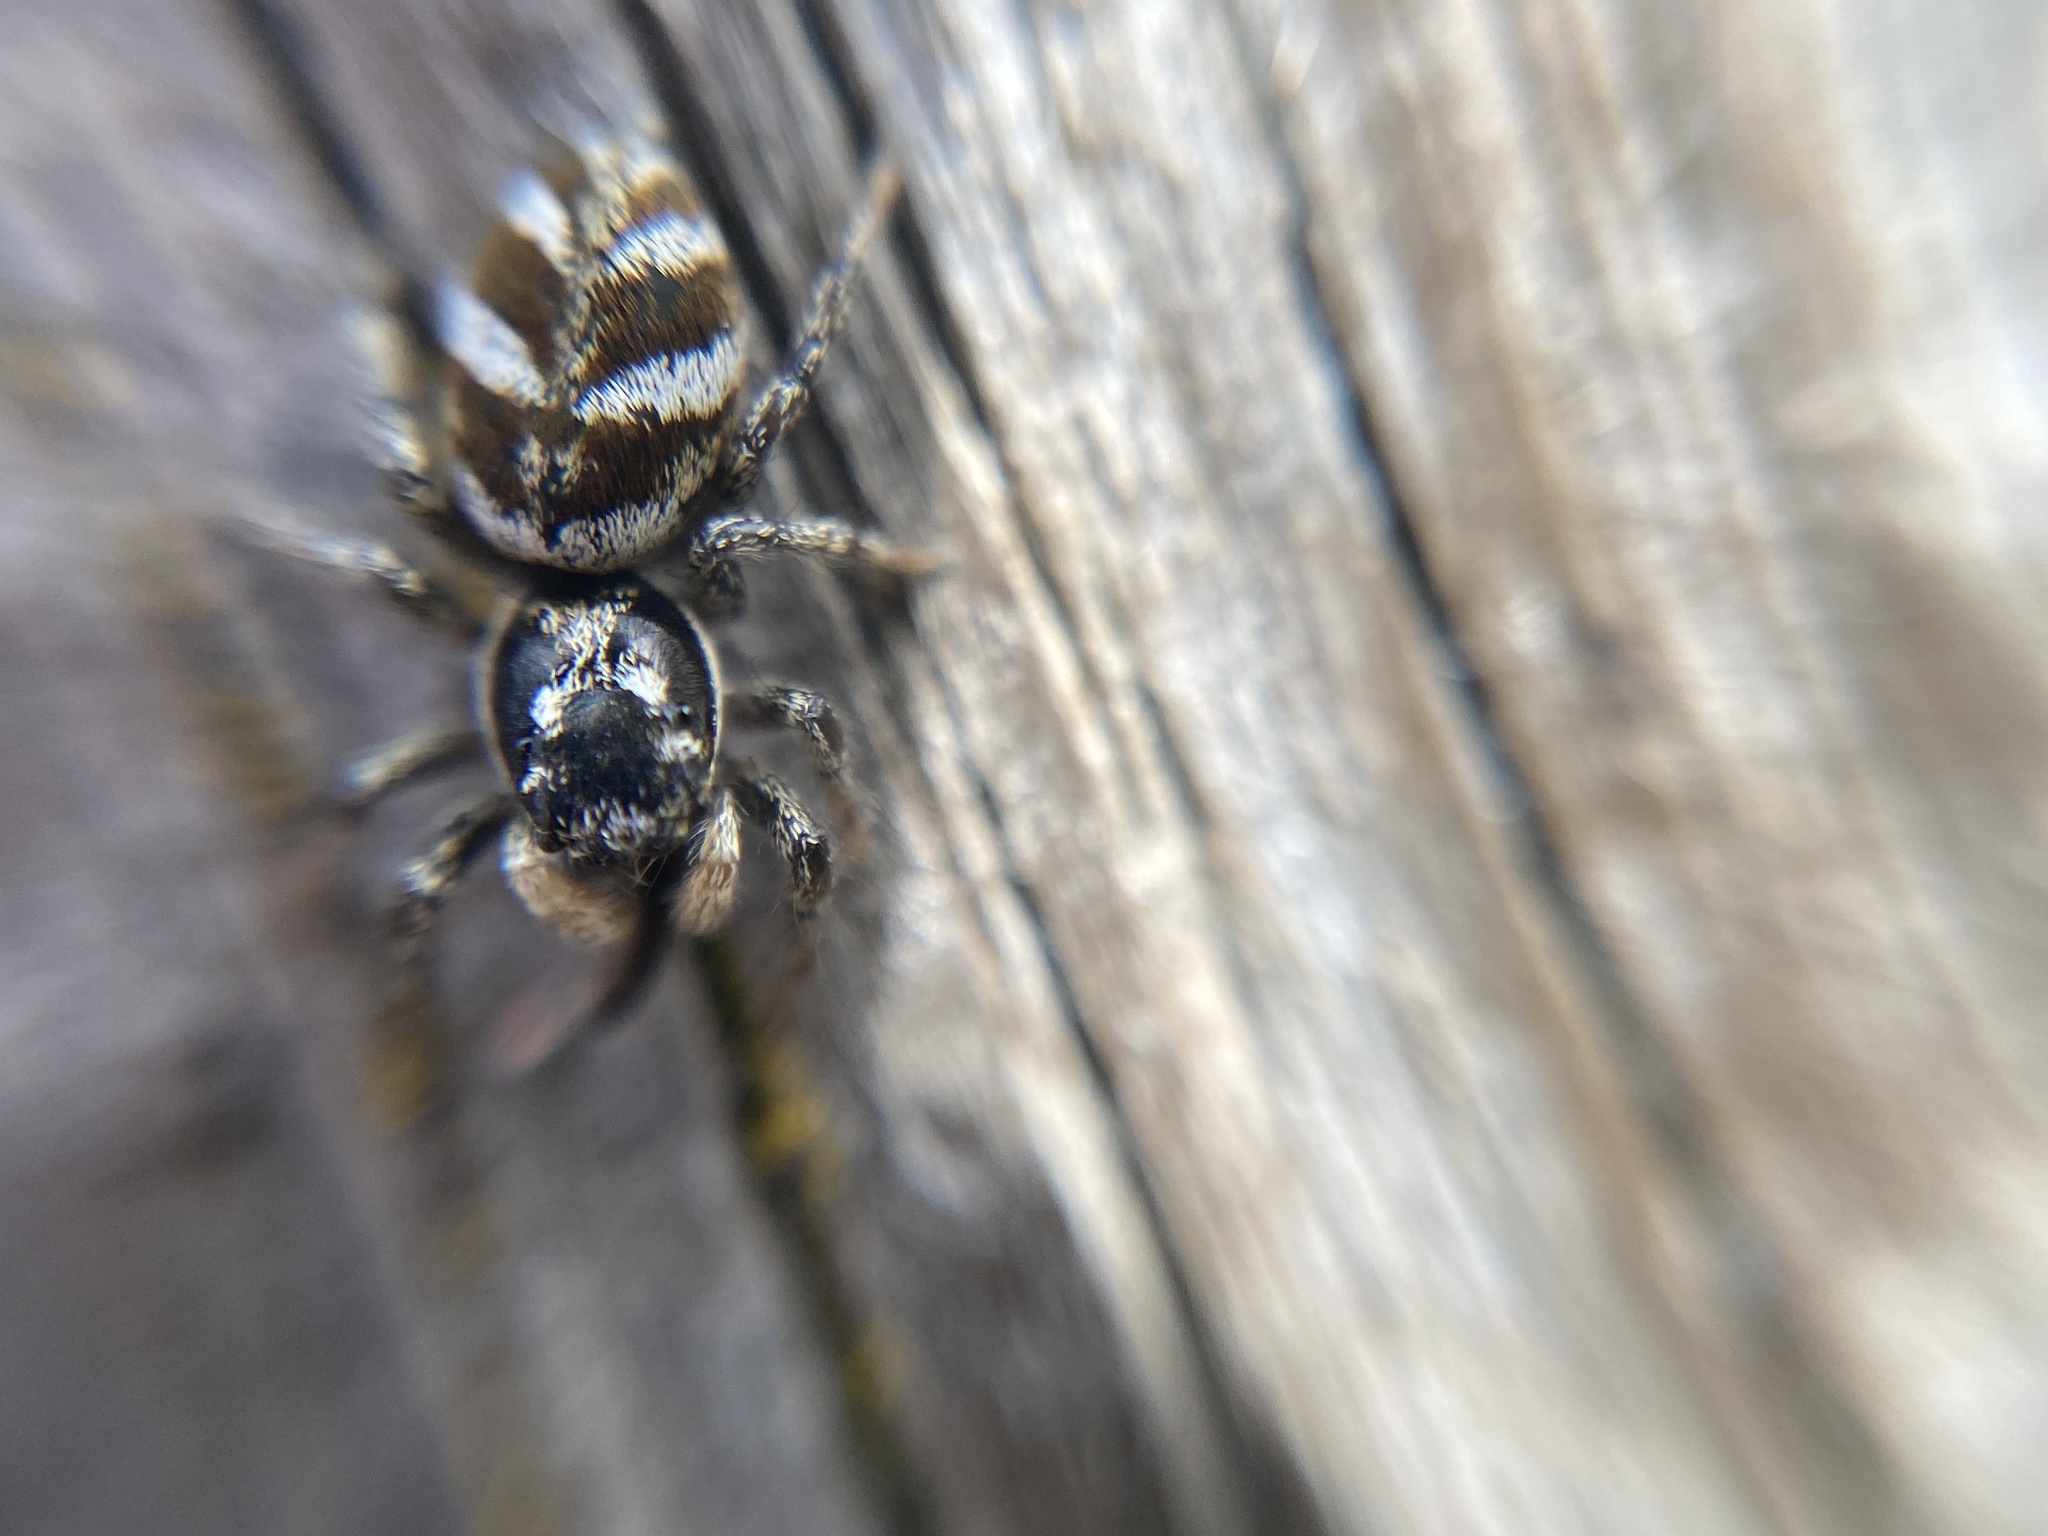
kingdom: Animalia
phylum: Arthropoda
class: Arachnida
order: Araneae
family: Salticidae
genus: Salticus
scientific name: Salticus scenicus
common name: Zebra jumper
